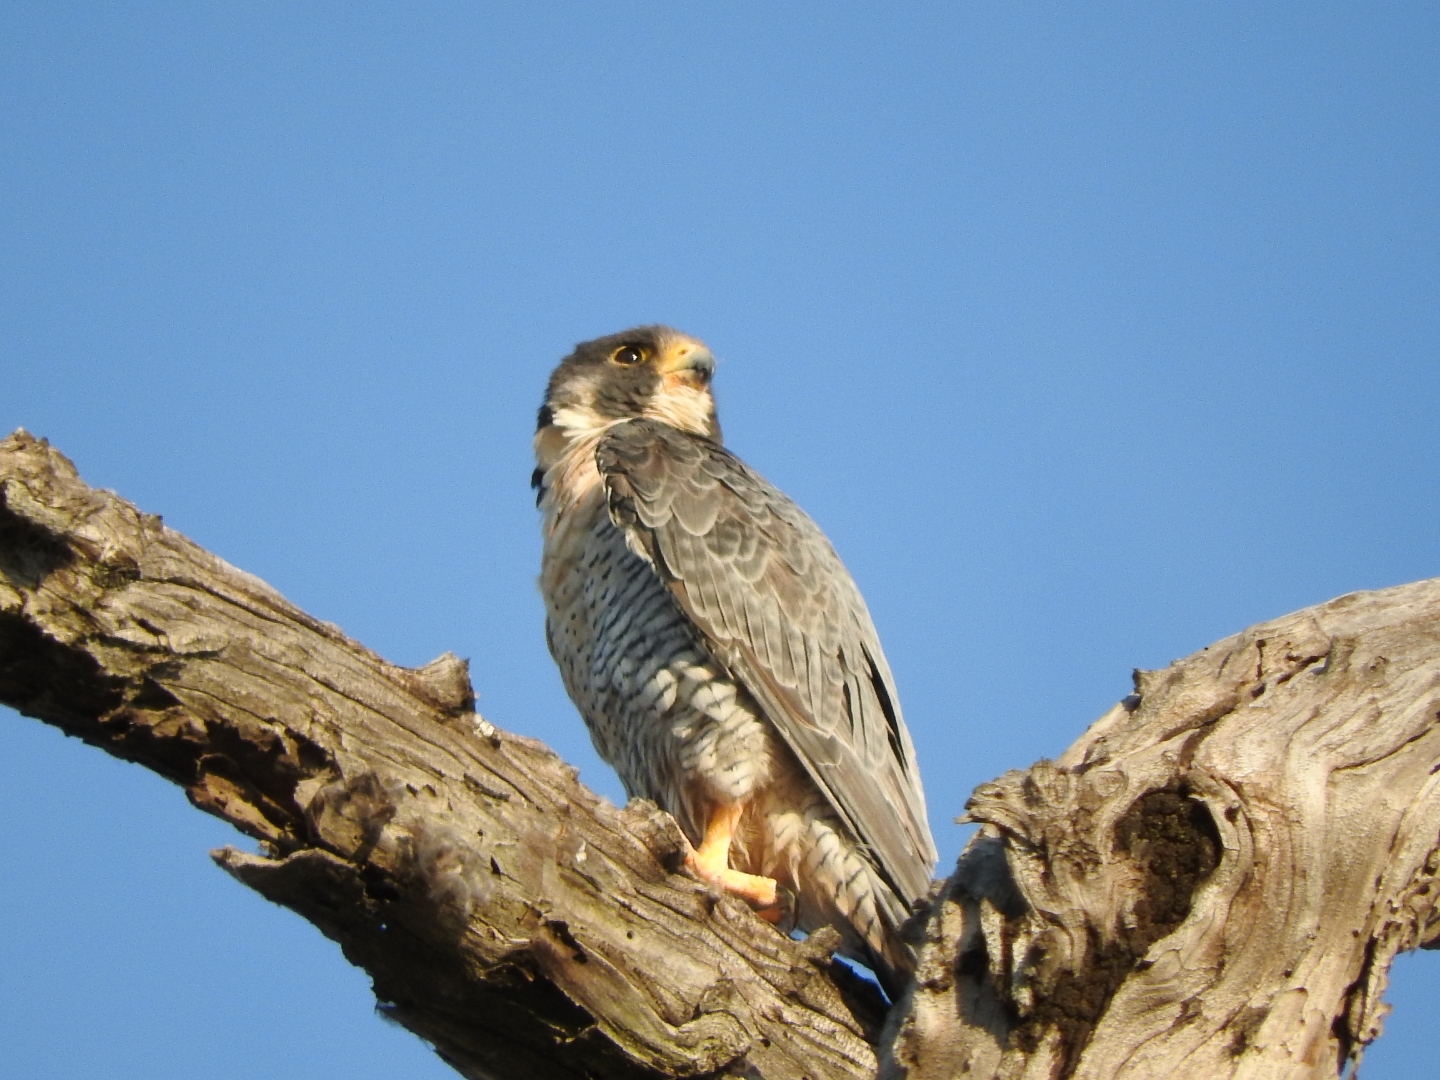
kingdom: Animalia
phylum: Chordata
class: Aves
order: Falconiformes
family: Falconidae
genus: Falco
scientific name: Falco peregrinus
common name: Peregrine falcon
